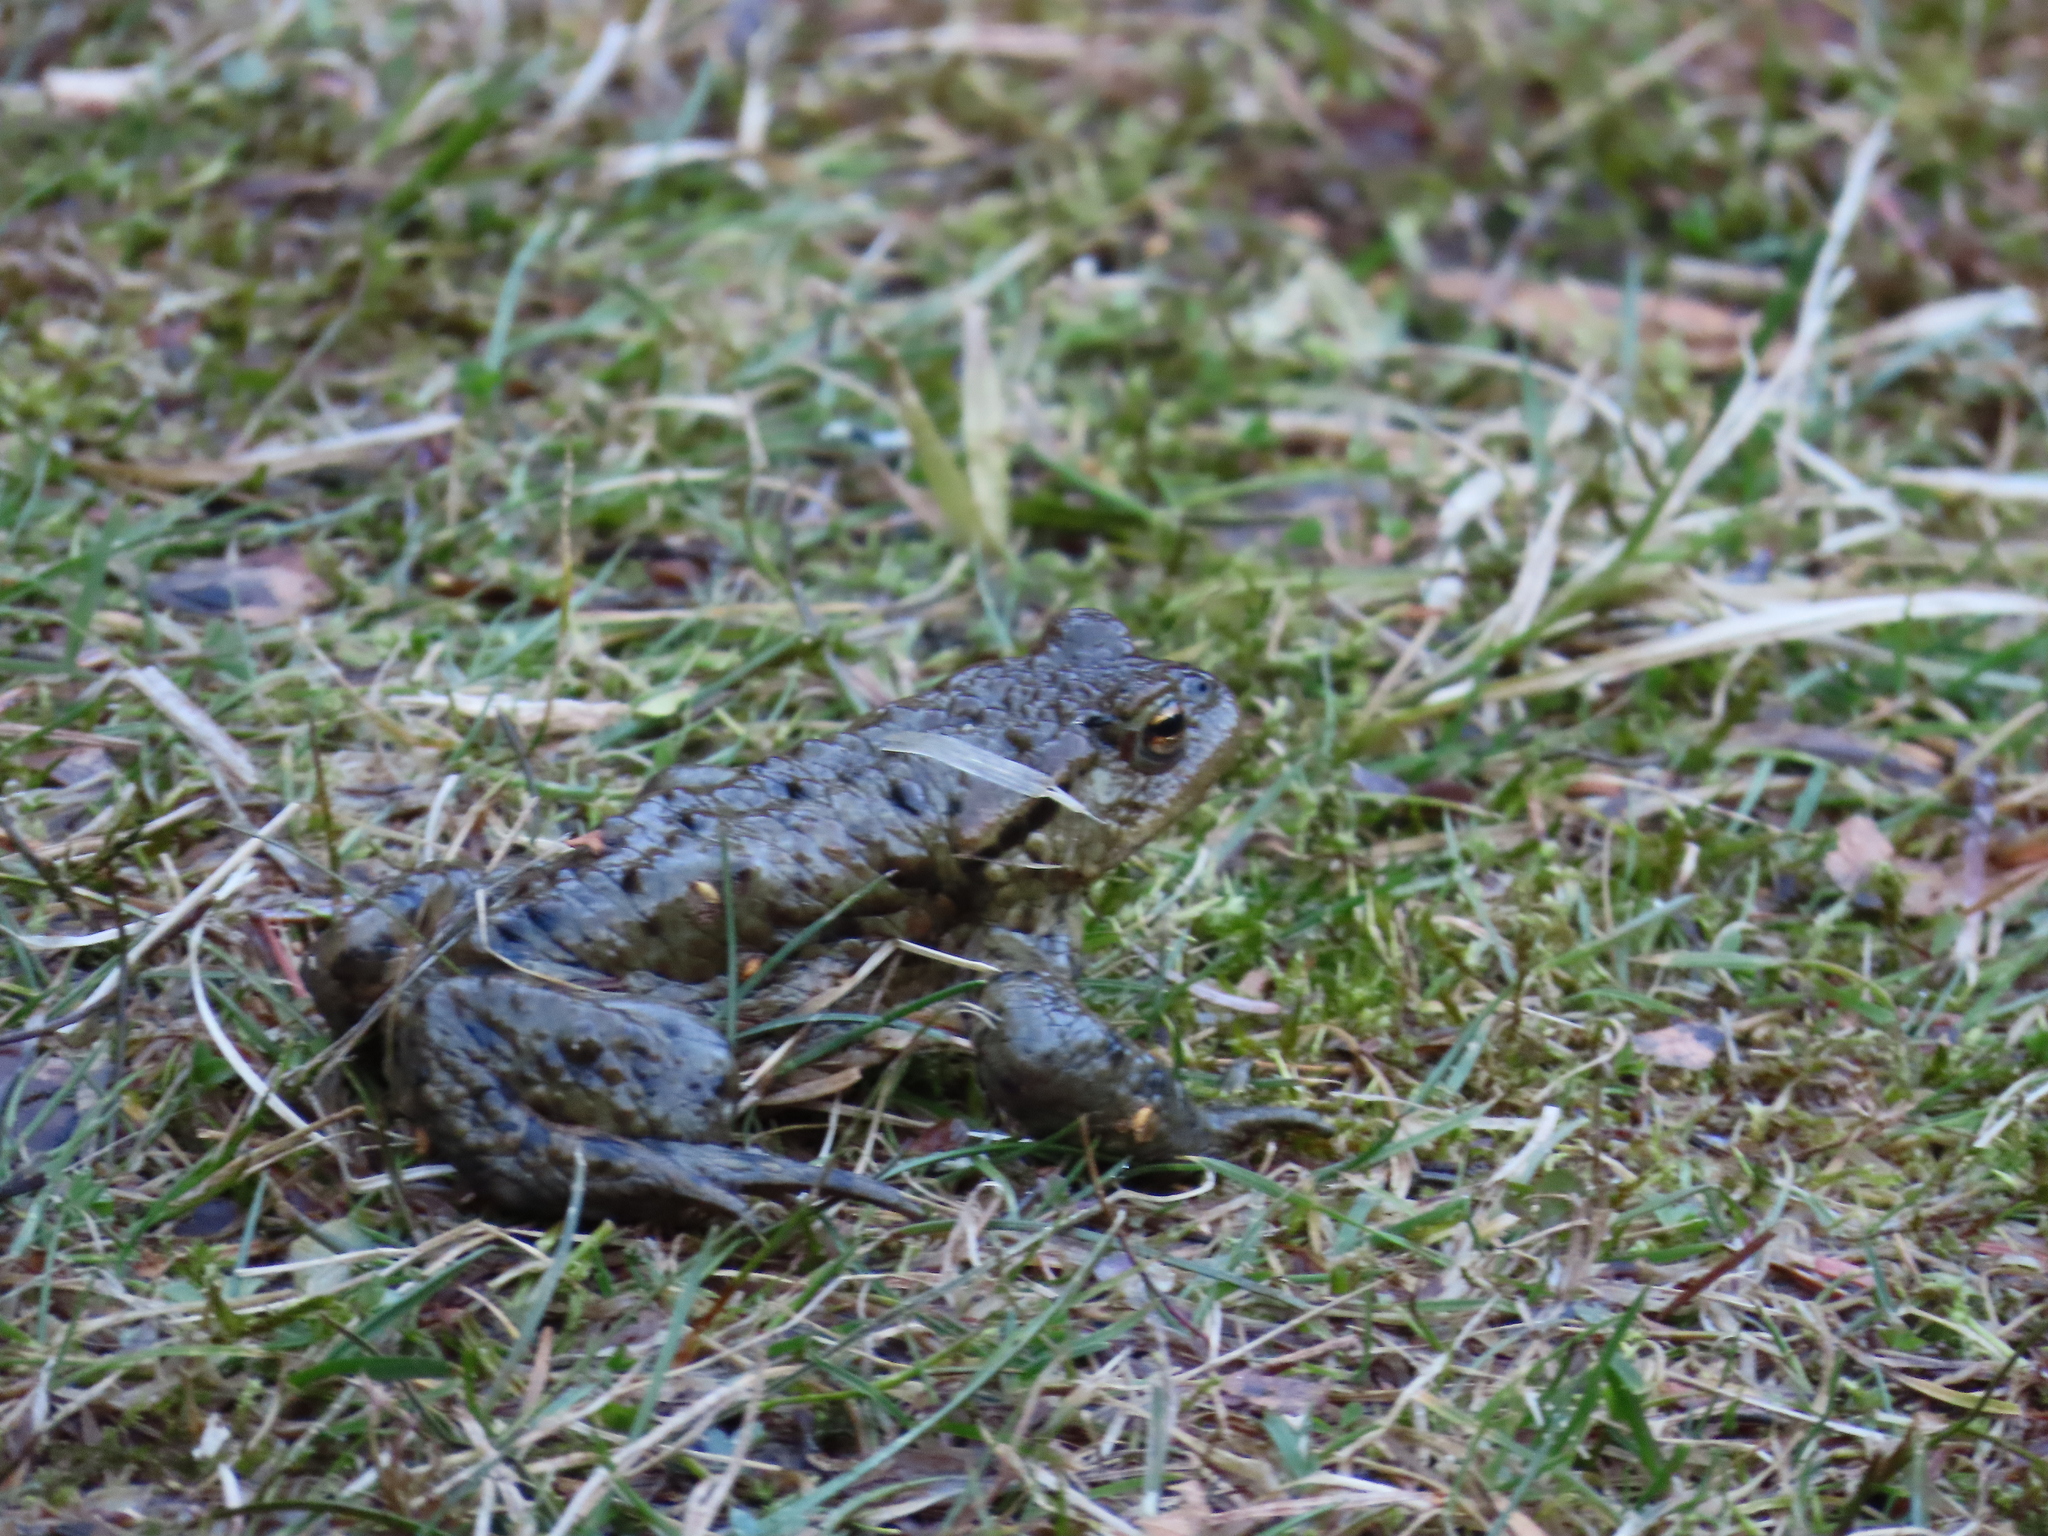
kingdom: Animalia
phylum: Chordata
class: Amphibia
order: Anura
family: Bufonidae
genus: Bufo
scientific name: Bufo bufo
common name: Common toad
